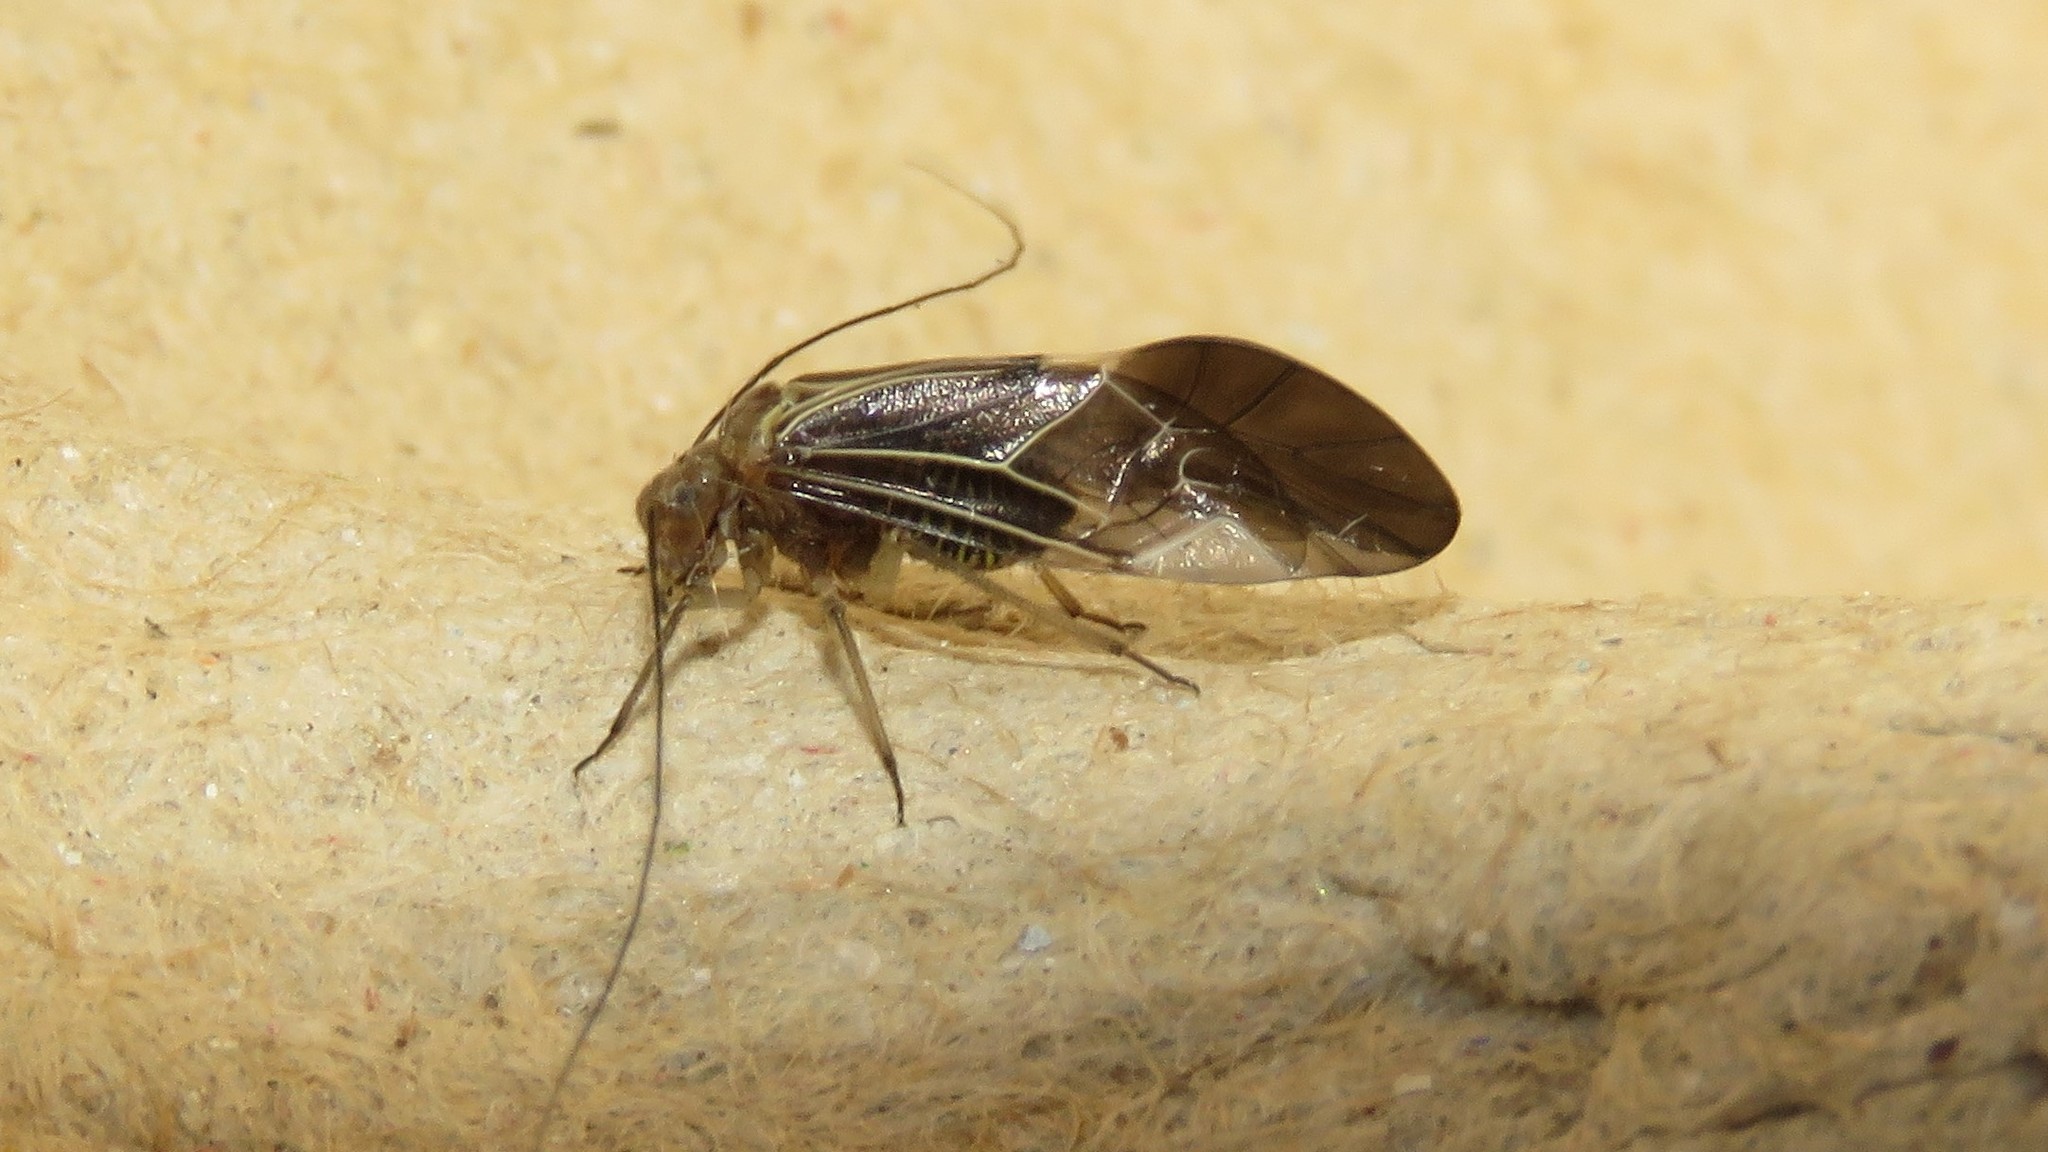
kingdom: Animalia
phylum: Arthropoda
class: Insecta
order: Psocodea
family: Psocidae
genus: Cerastipsocus
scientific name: Cerastipsocus venosus
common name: Tree cattle
